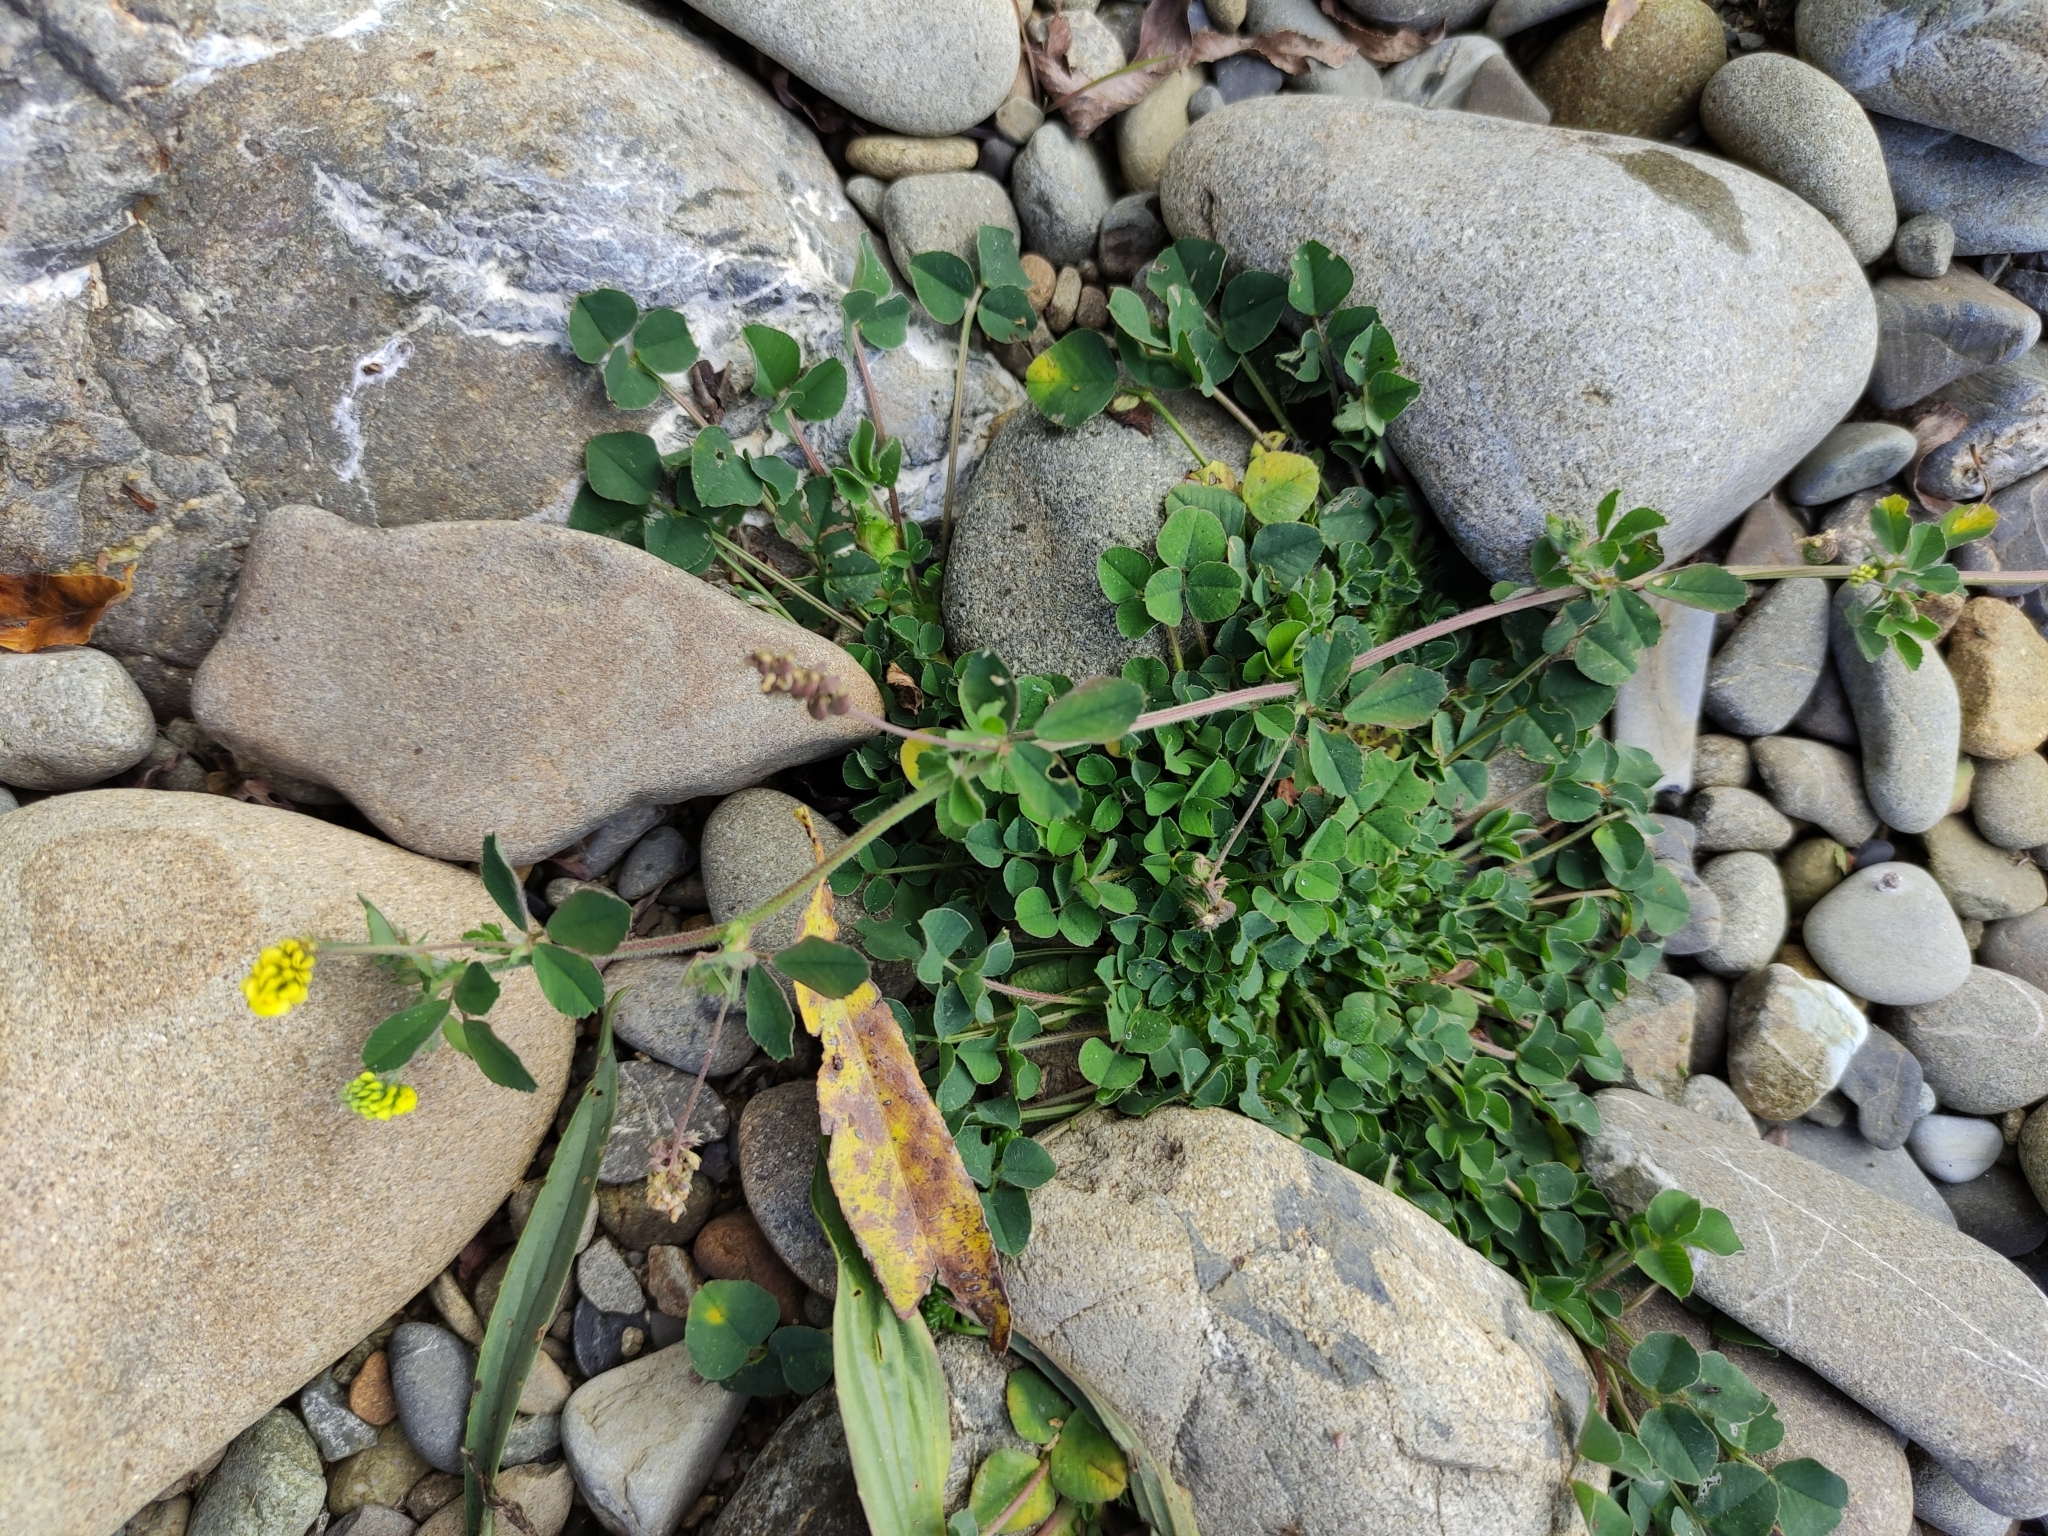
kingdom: Plantae
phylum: Tracheophyta
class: Magnoliopsida
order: Fabales
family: Fabaceae
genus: Medicago
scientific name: Medicago lupulina
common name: Black medick
